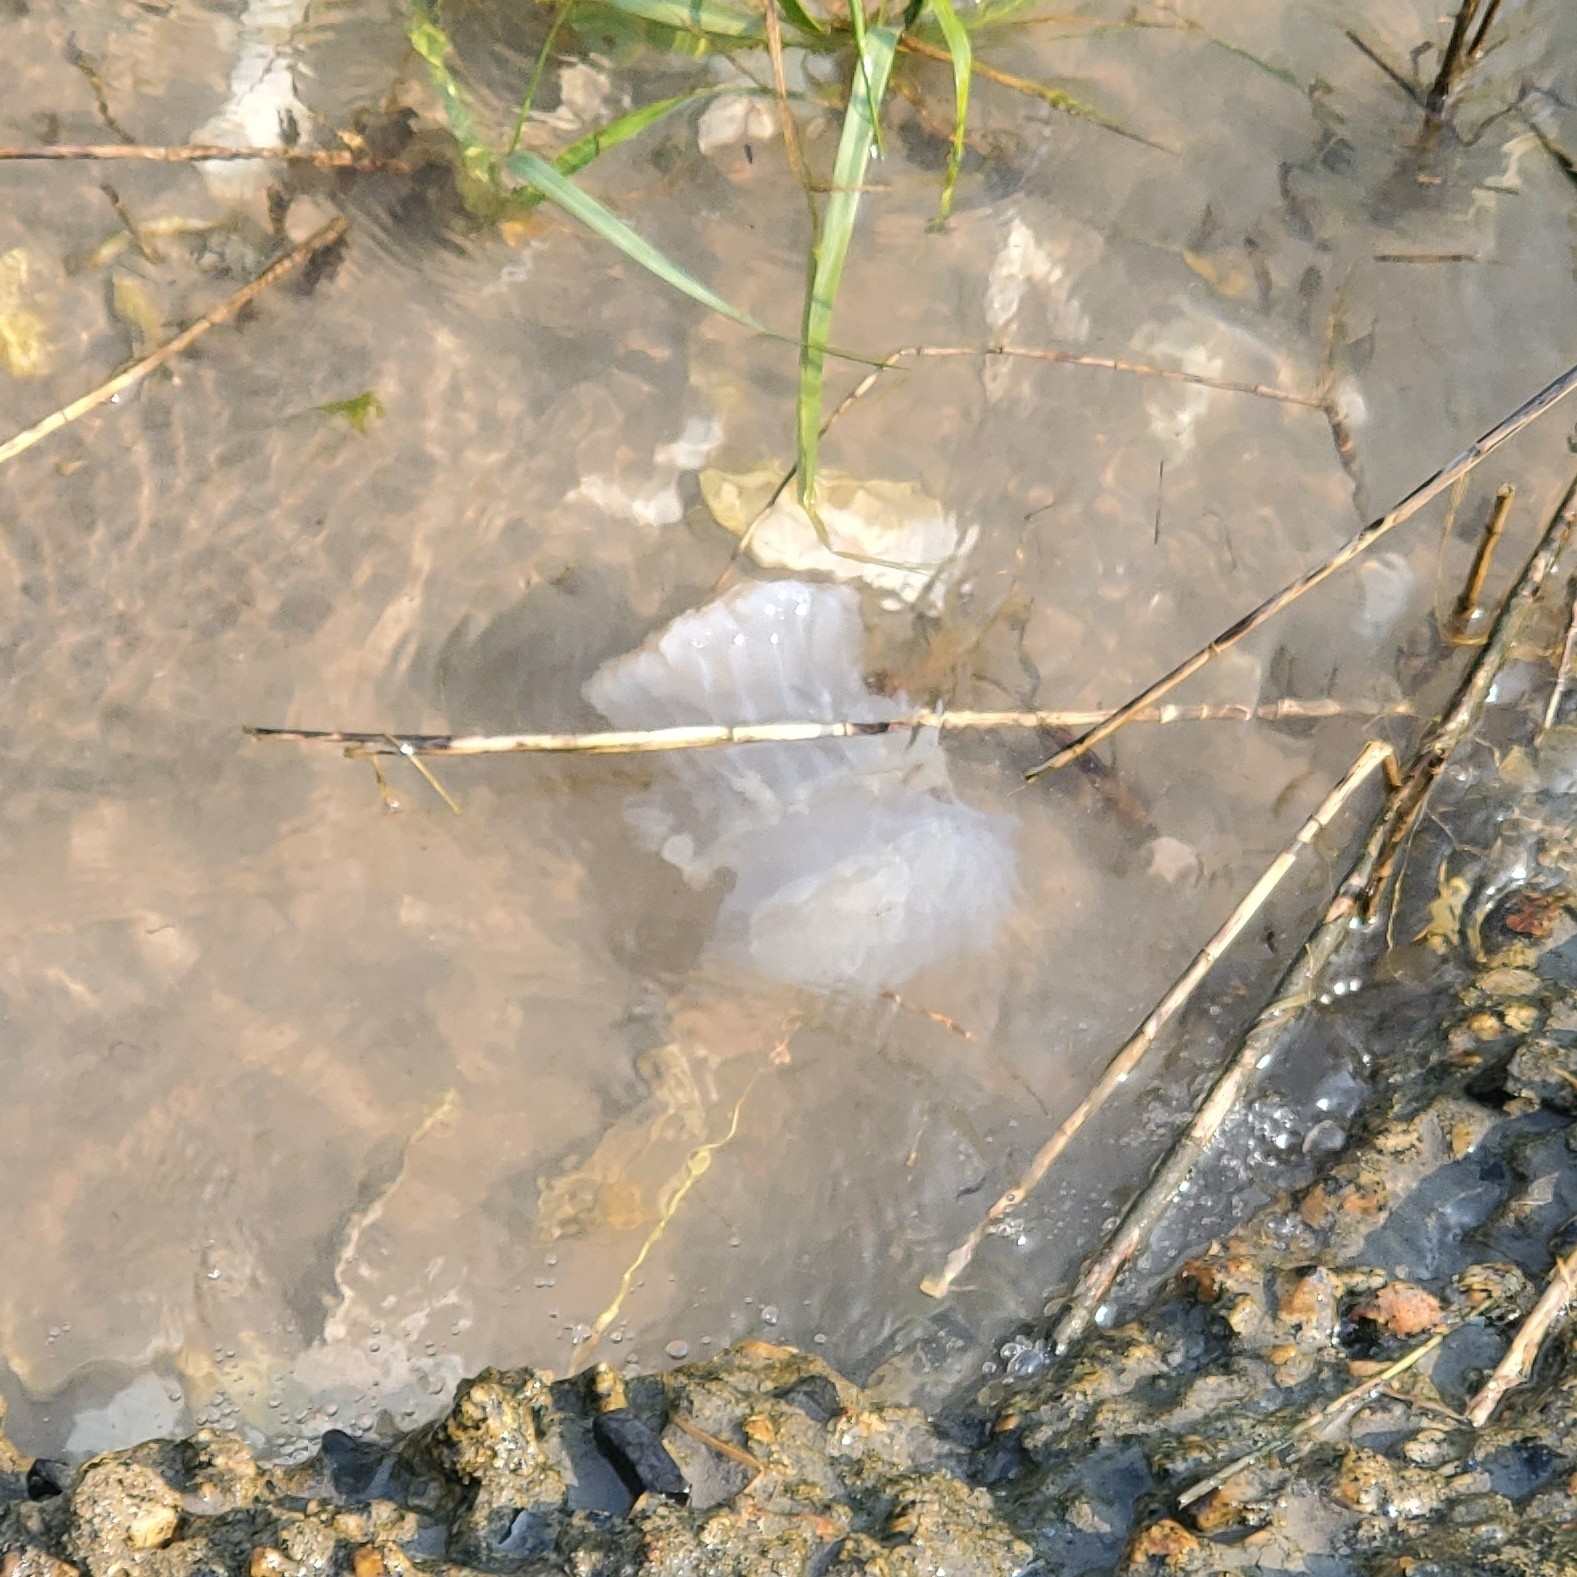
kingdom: Animalia
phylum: Cnidaria
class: Scyphozoa
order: Rhizostomeae
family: Stomolophidae
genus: Stomolophus
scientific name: Stomolophus meleagris
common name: Cabbagehead
